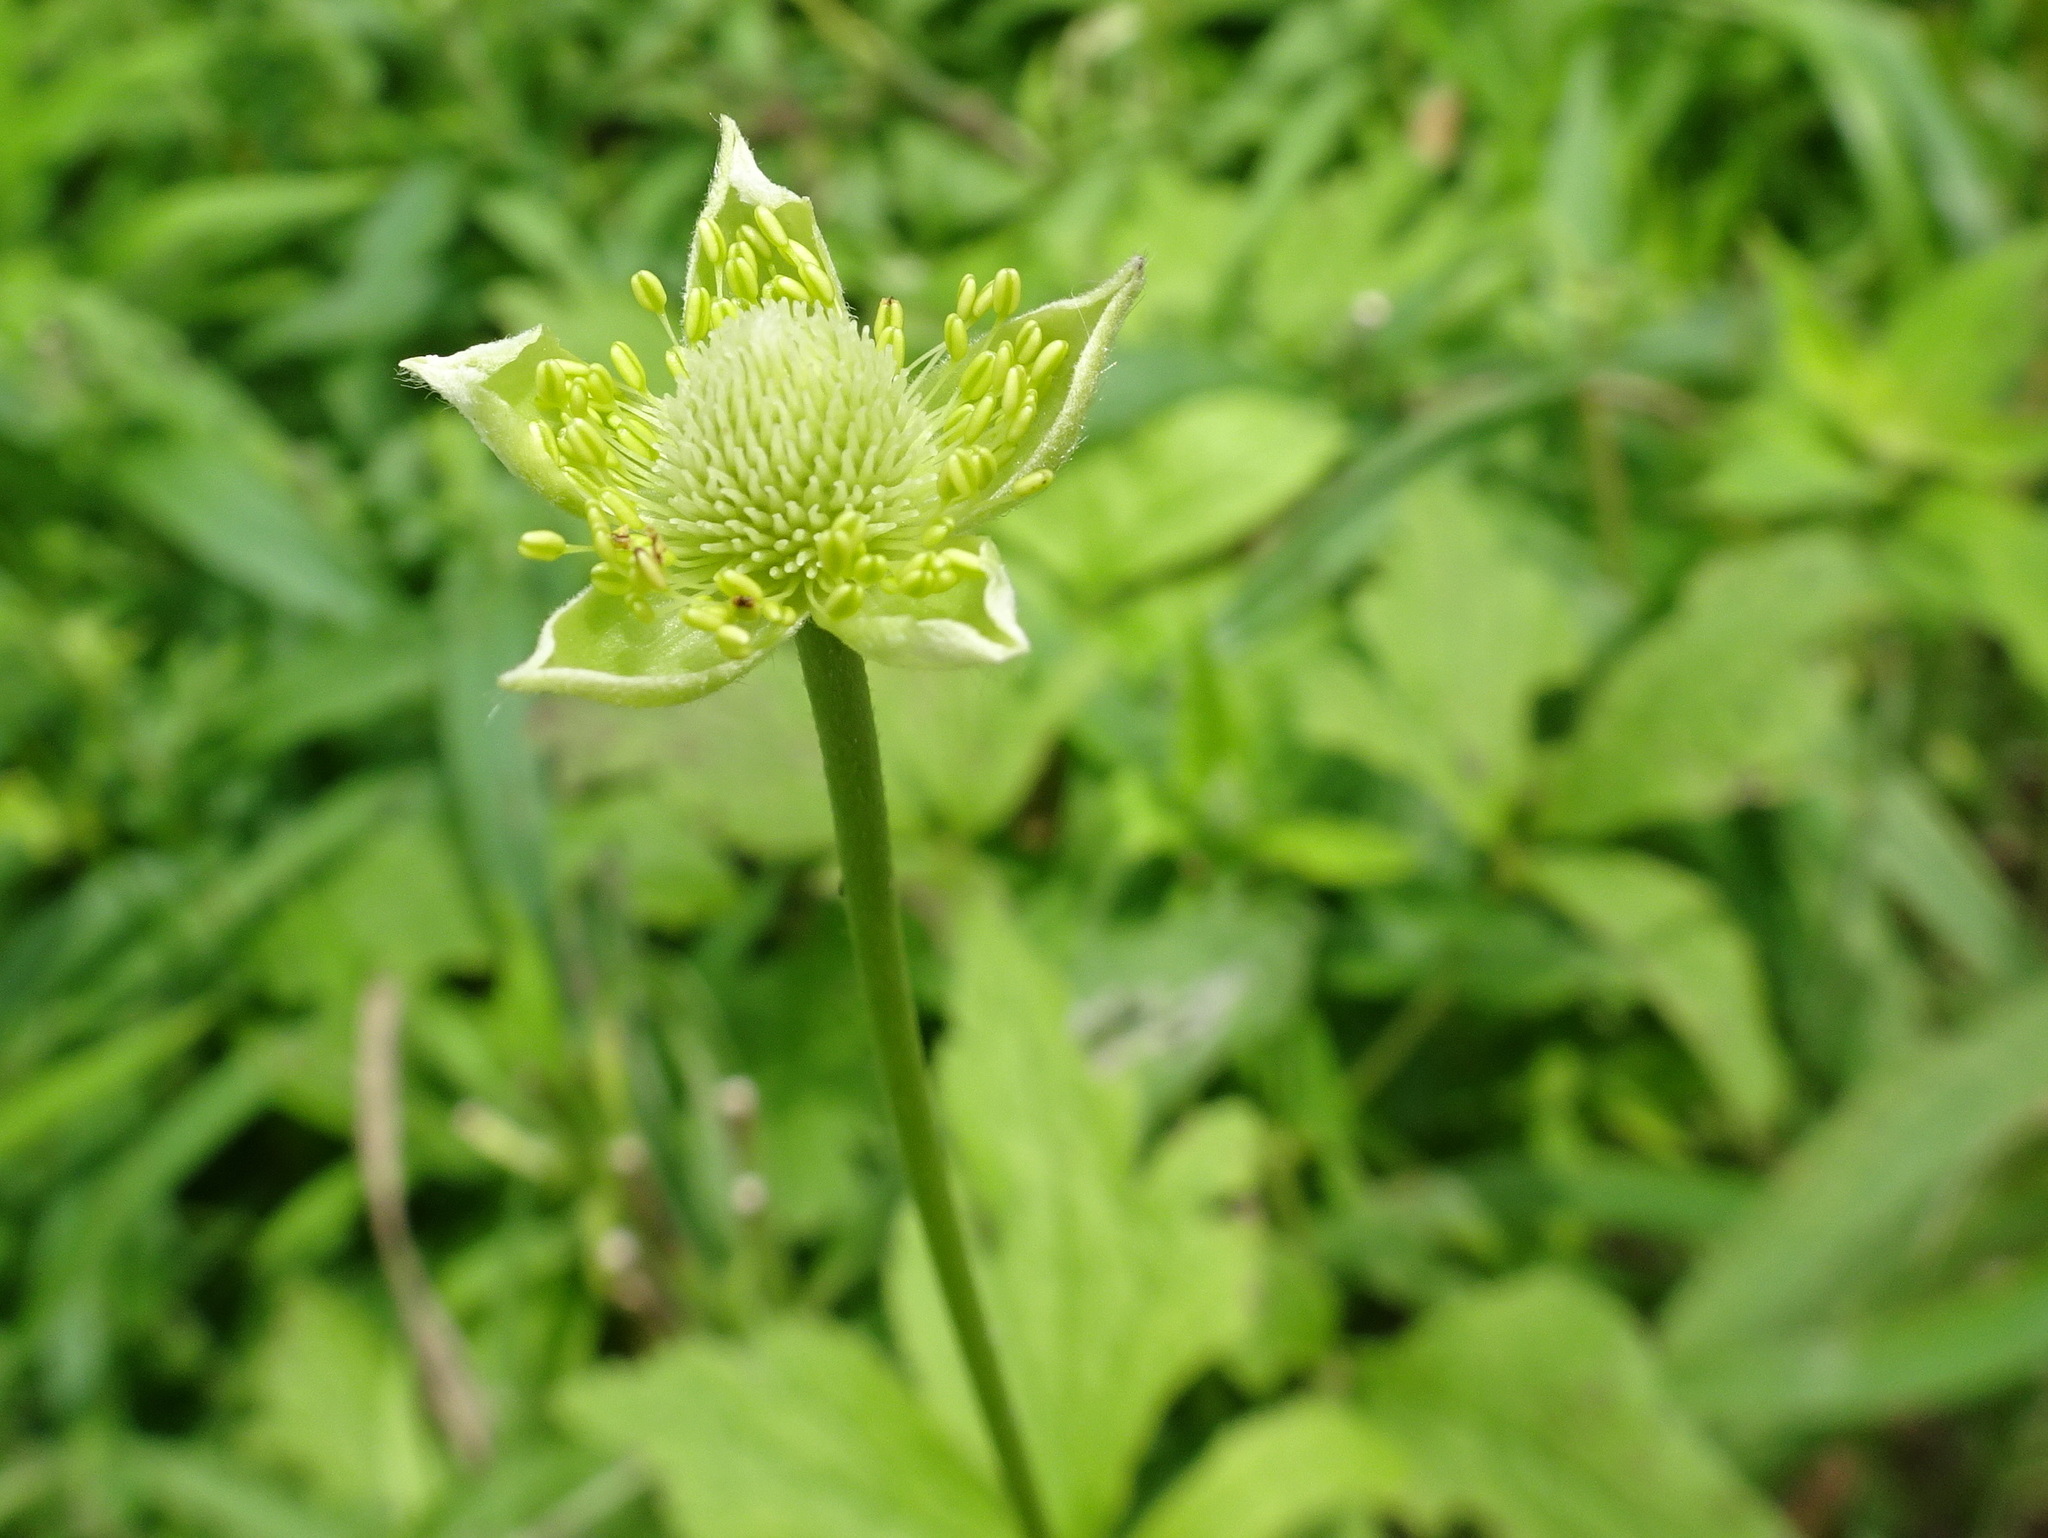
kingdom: Plantae
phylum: Tracheophyta
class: Magnoliopsida
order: Ranunculales
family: Ranunculaceae
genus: Anemone
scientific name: Anemone virginiana
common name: Tall anemone
